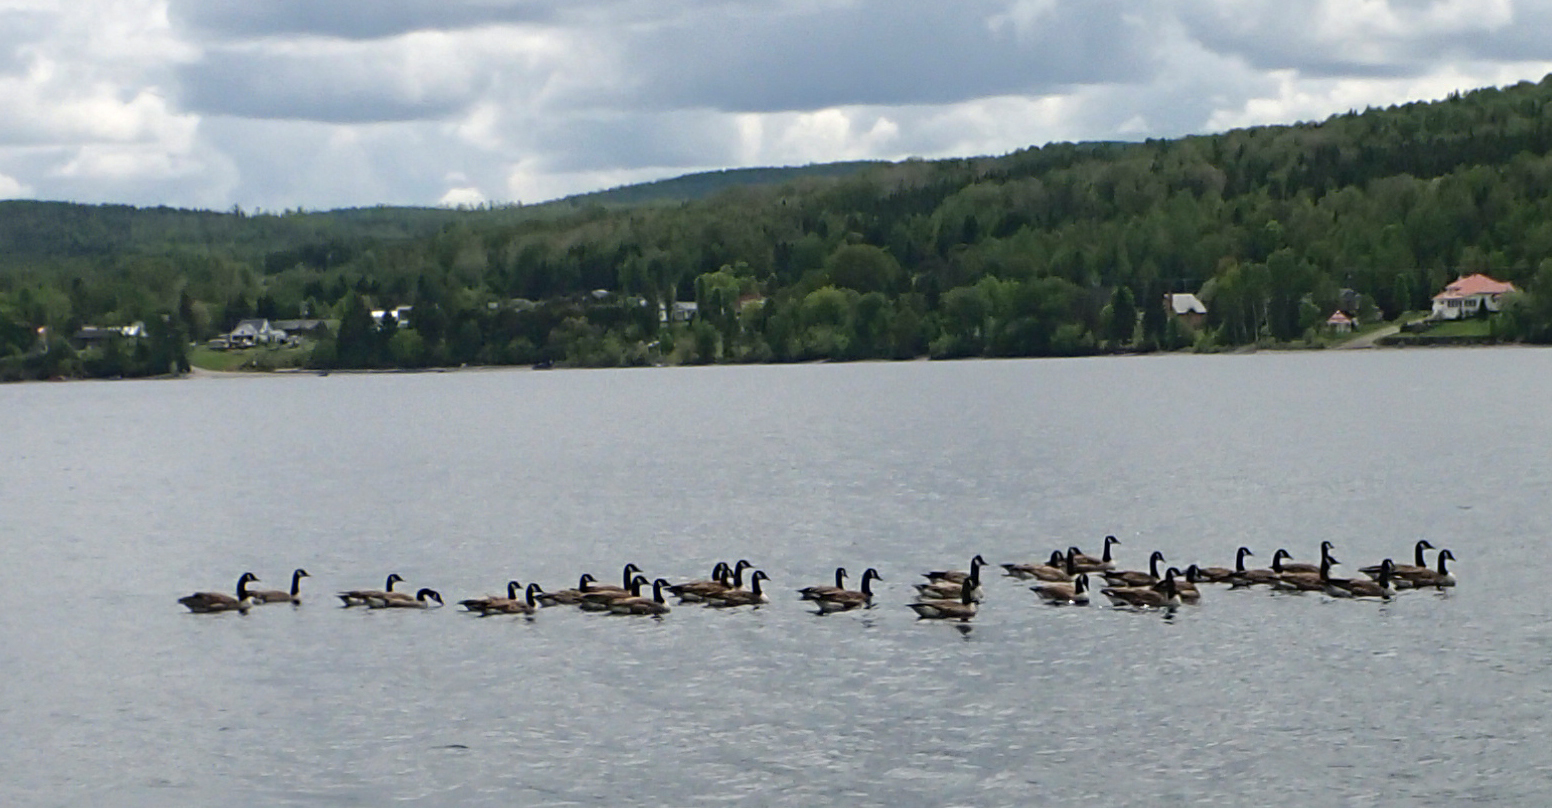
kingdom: Animalia
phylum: Chordata
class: Aves
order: Anseriformes
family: Anatidae
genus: Branta
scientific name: Branta canadensis
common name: Canada goose
